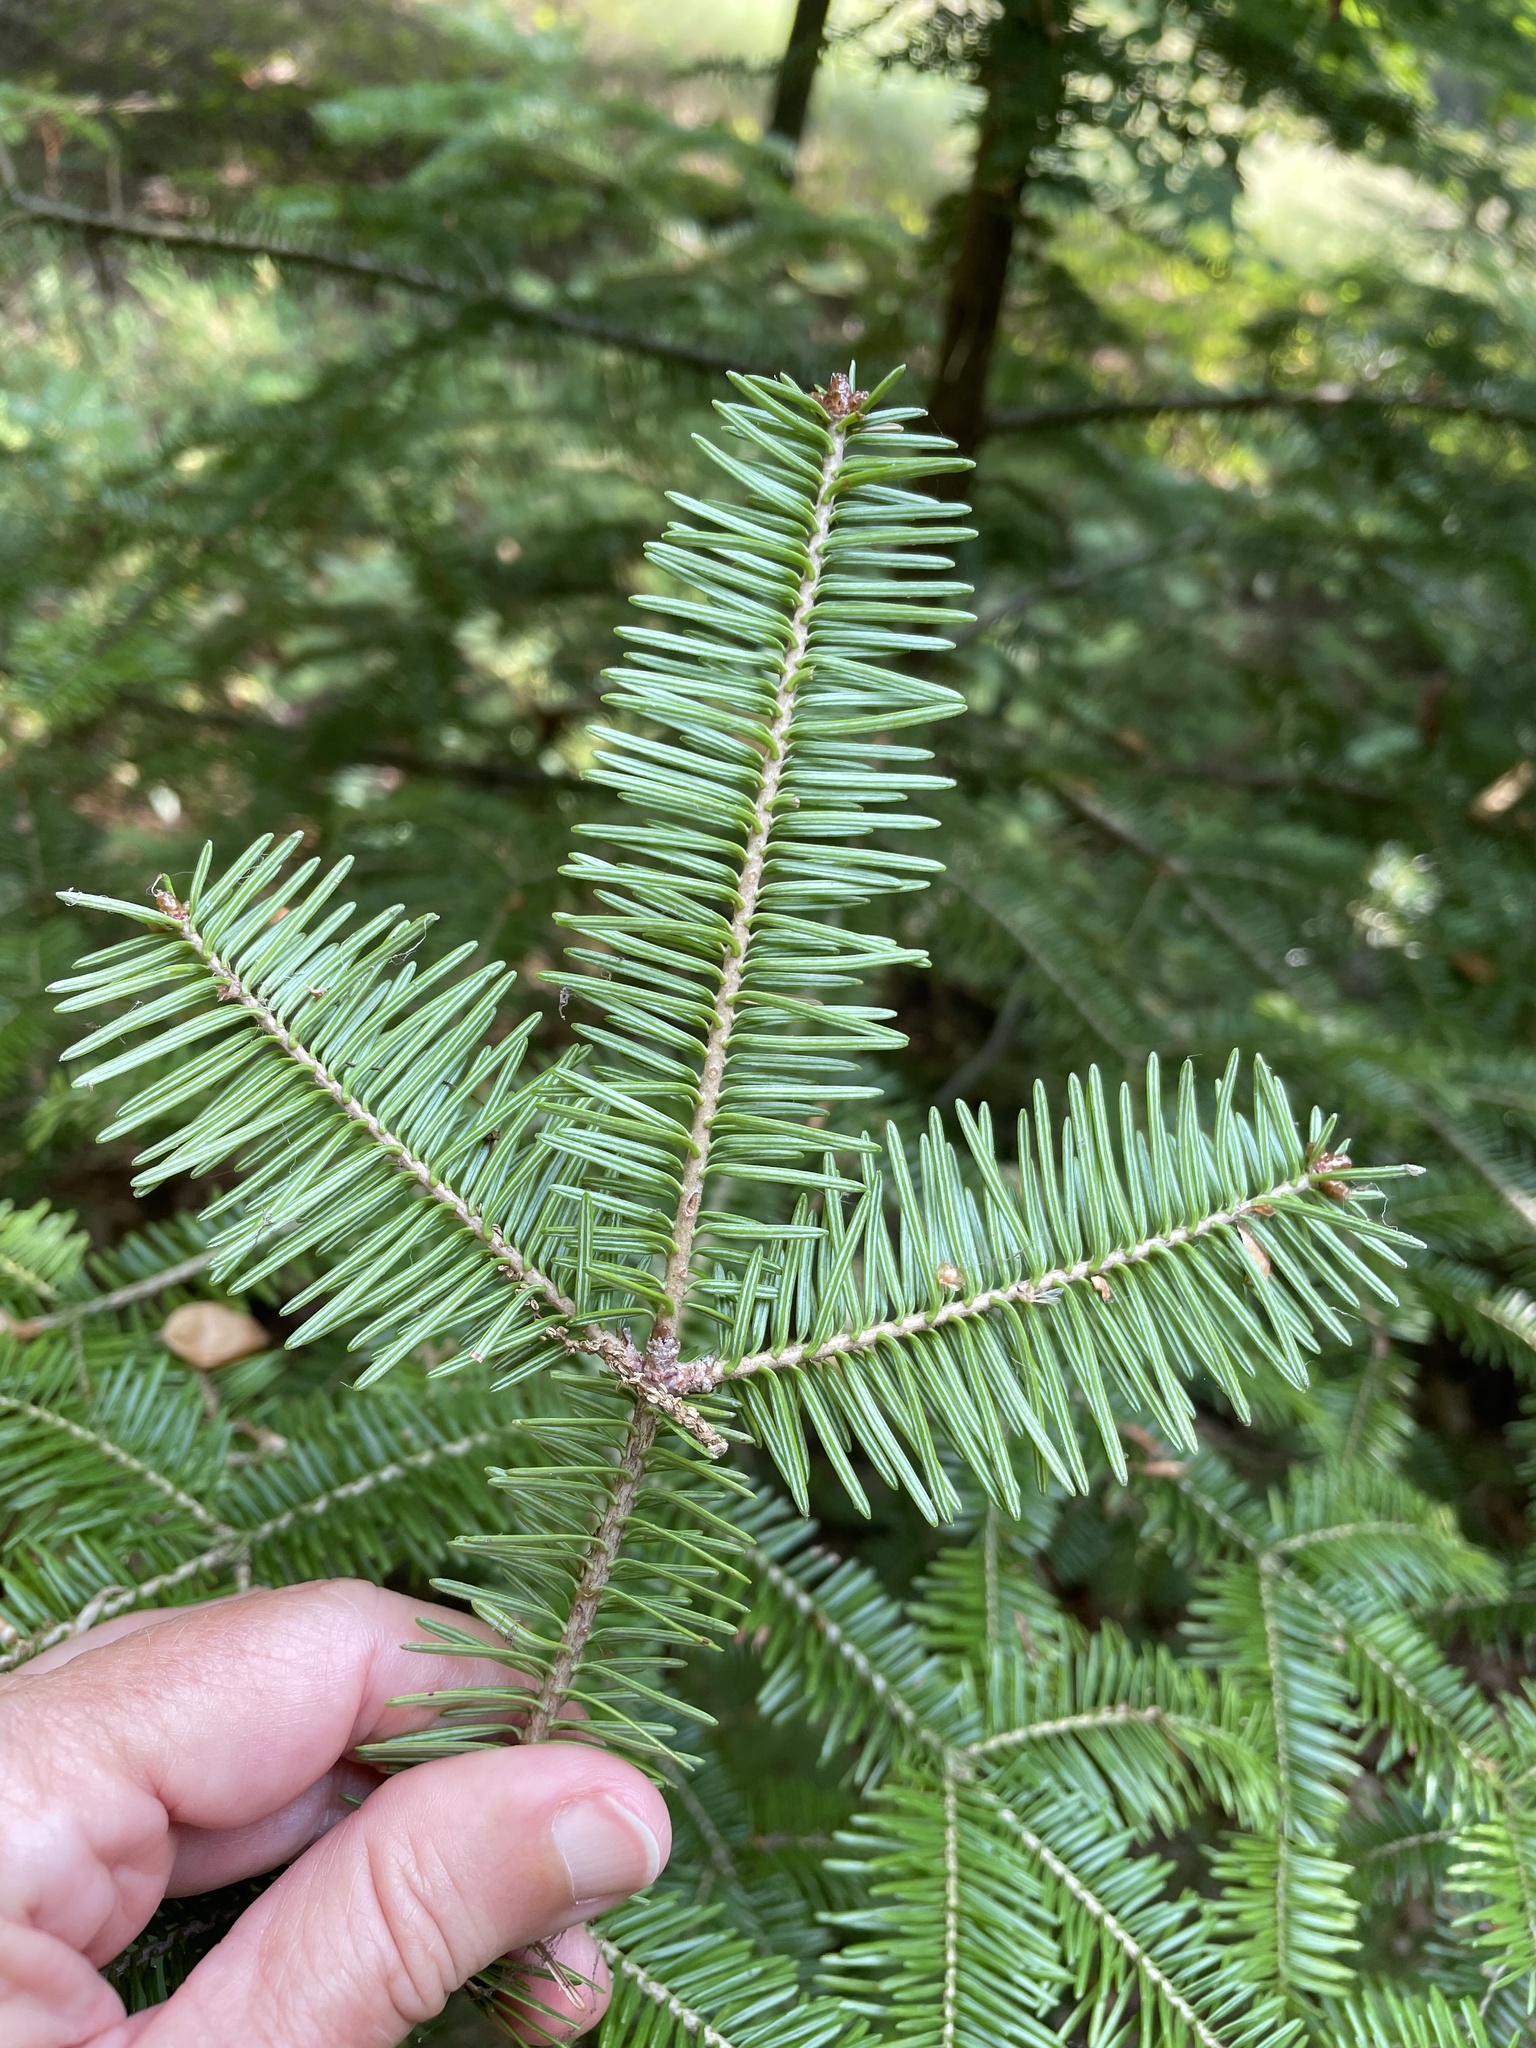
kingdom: Plantae
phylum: Tracheophyta
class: Pinopsida
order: Pinales
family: Pinaceae
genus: Abies
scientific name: Abies balsamea
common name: Balsam fir
